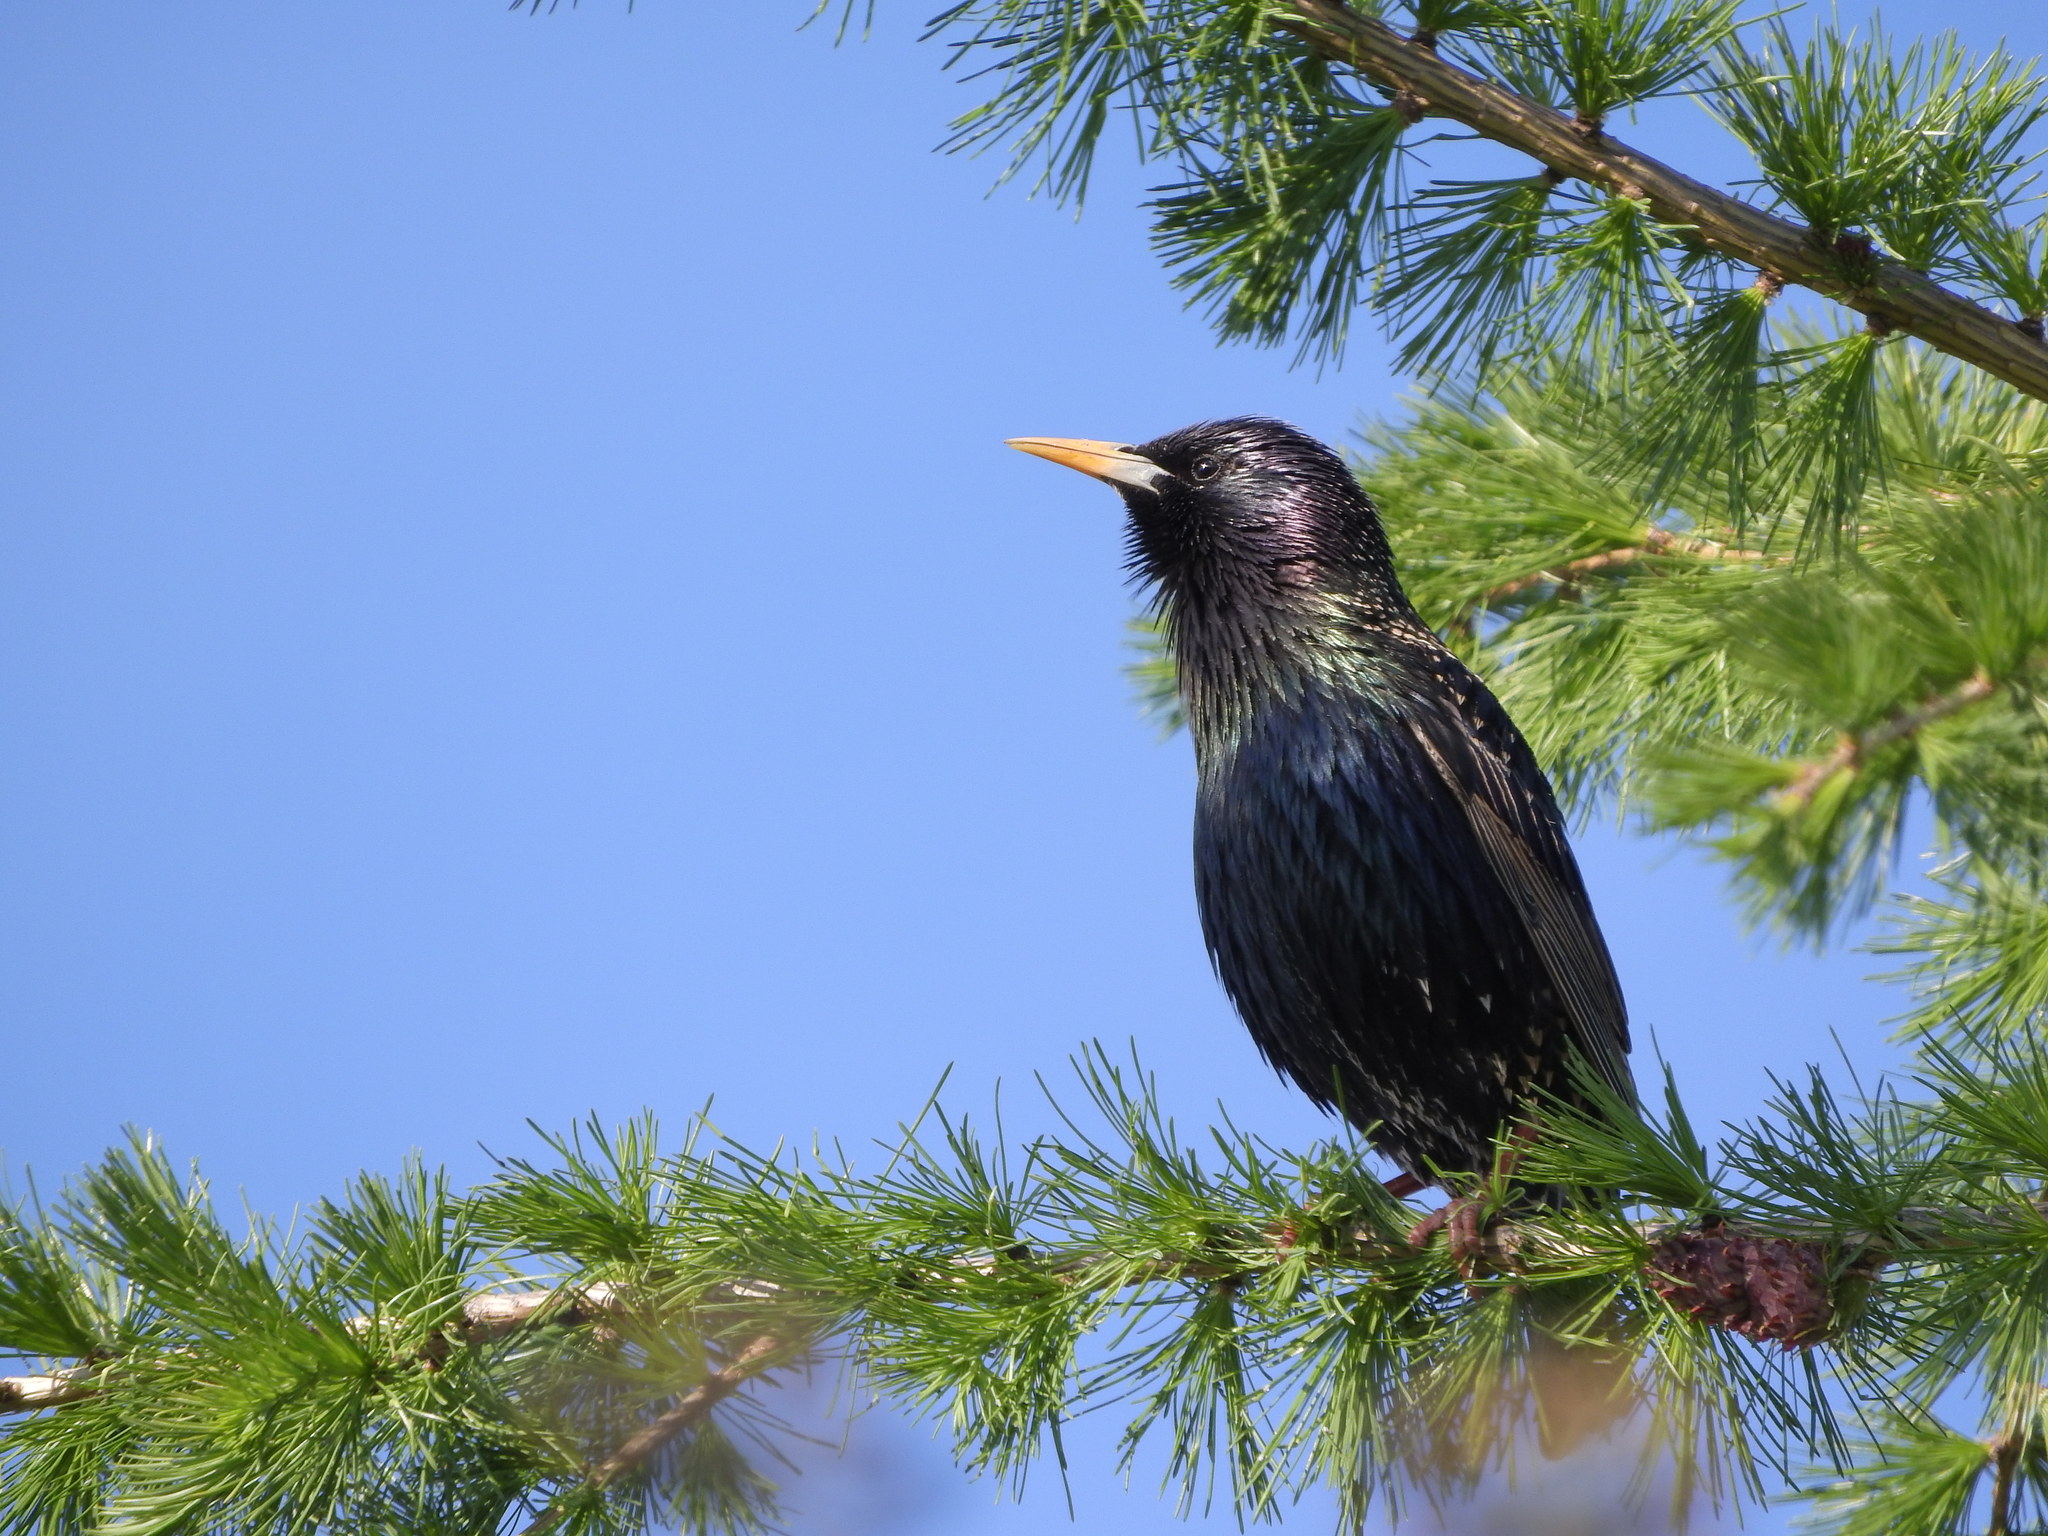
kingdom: Animalia
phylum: Chordata
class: Aves
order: Passeriformes
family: Sturnidae
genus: Sturnus
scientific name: Sturnus vulgaris
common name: Common starling
